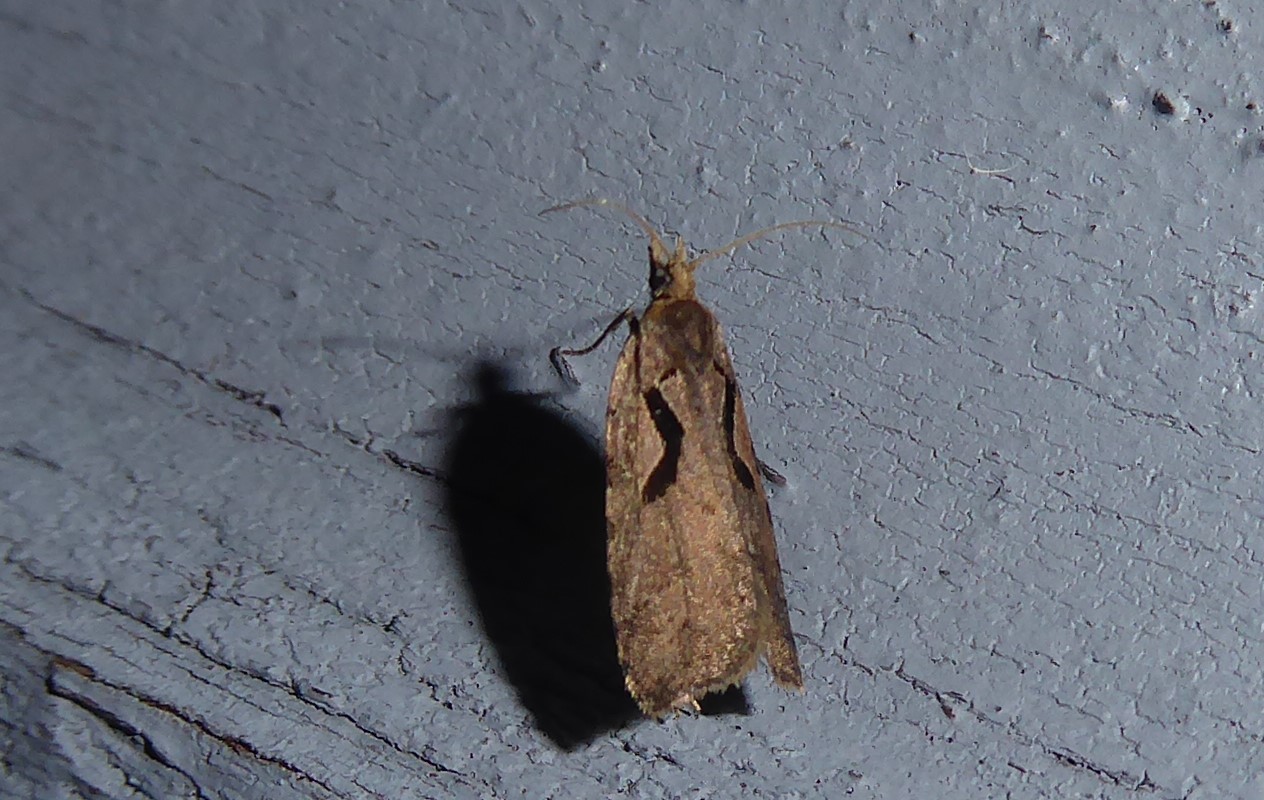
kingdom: Animalia
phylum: Arthropoda
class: Insecta
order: Lepidoptera
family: Tortricidae
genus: Cnephasia
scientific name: Cnephasia jactatana
